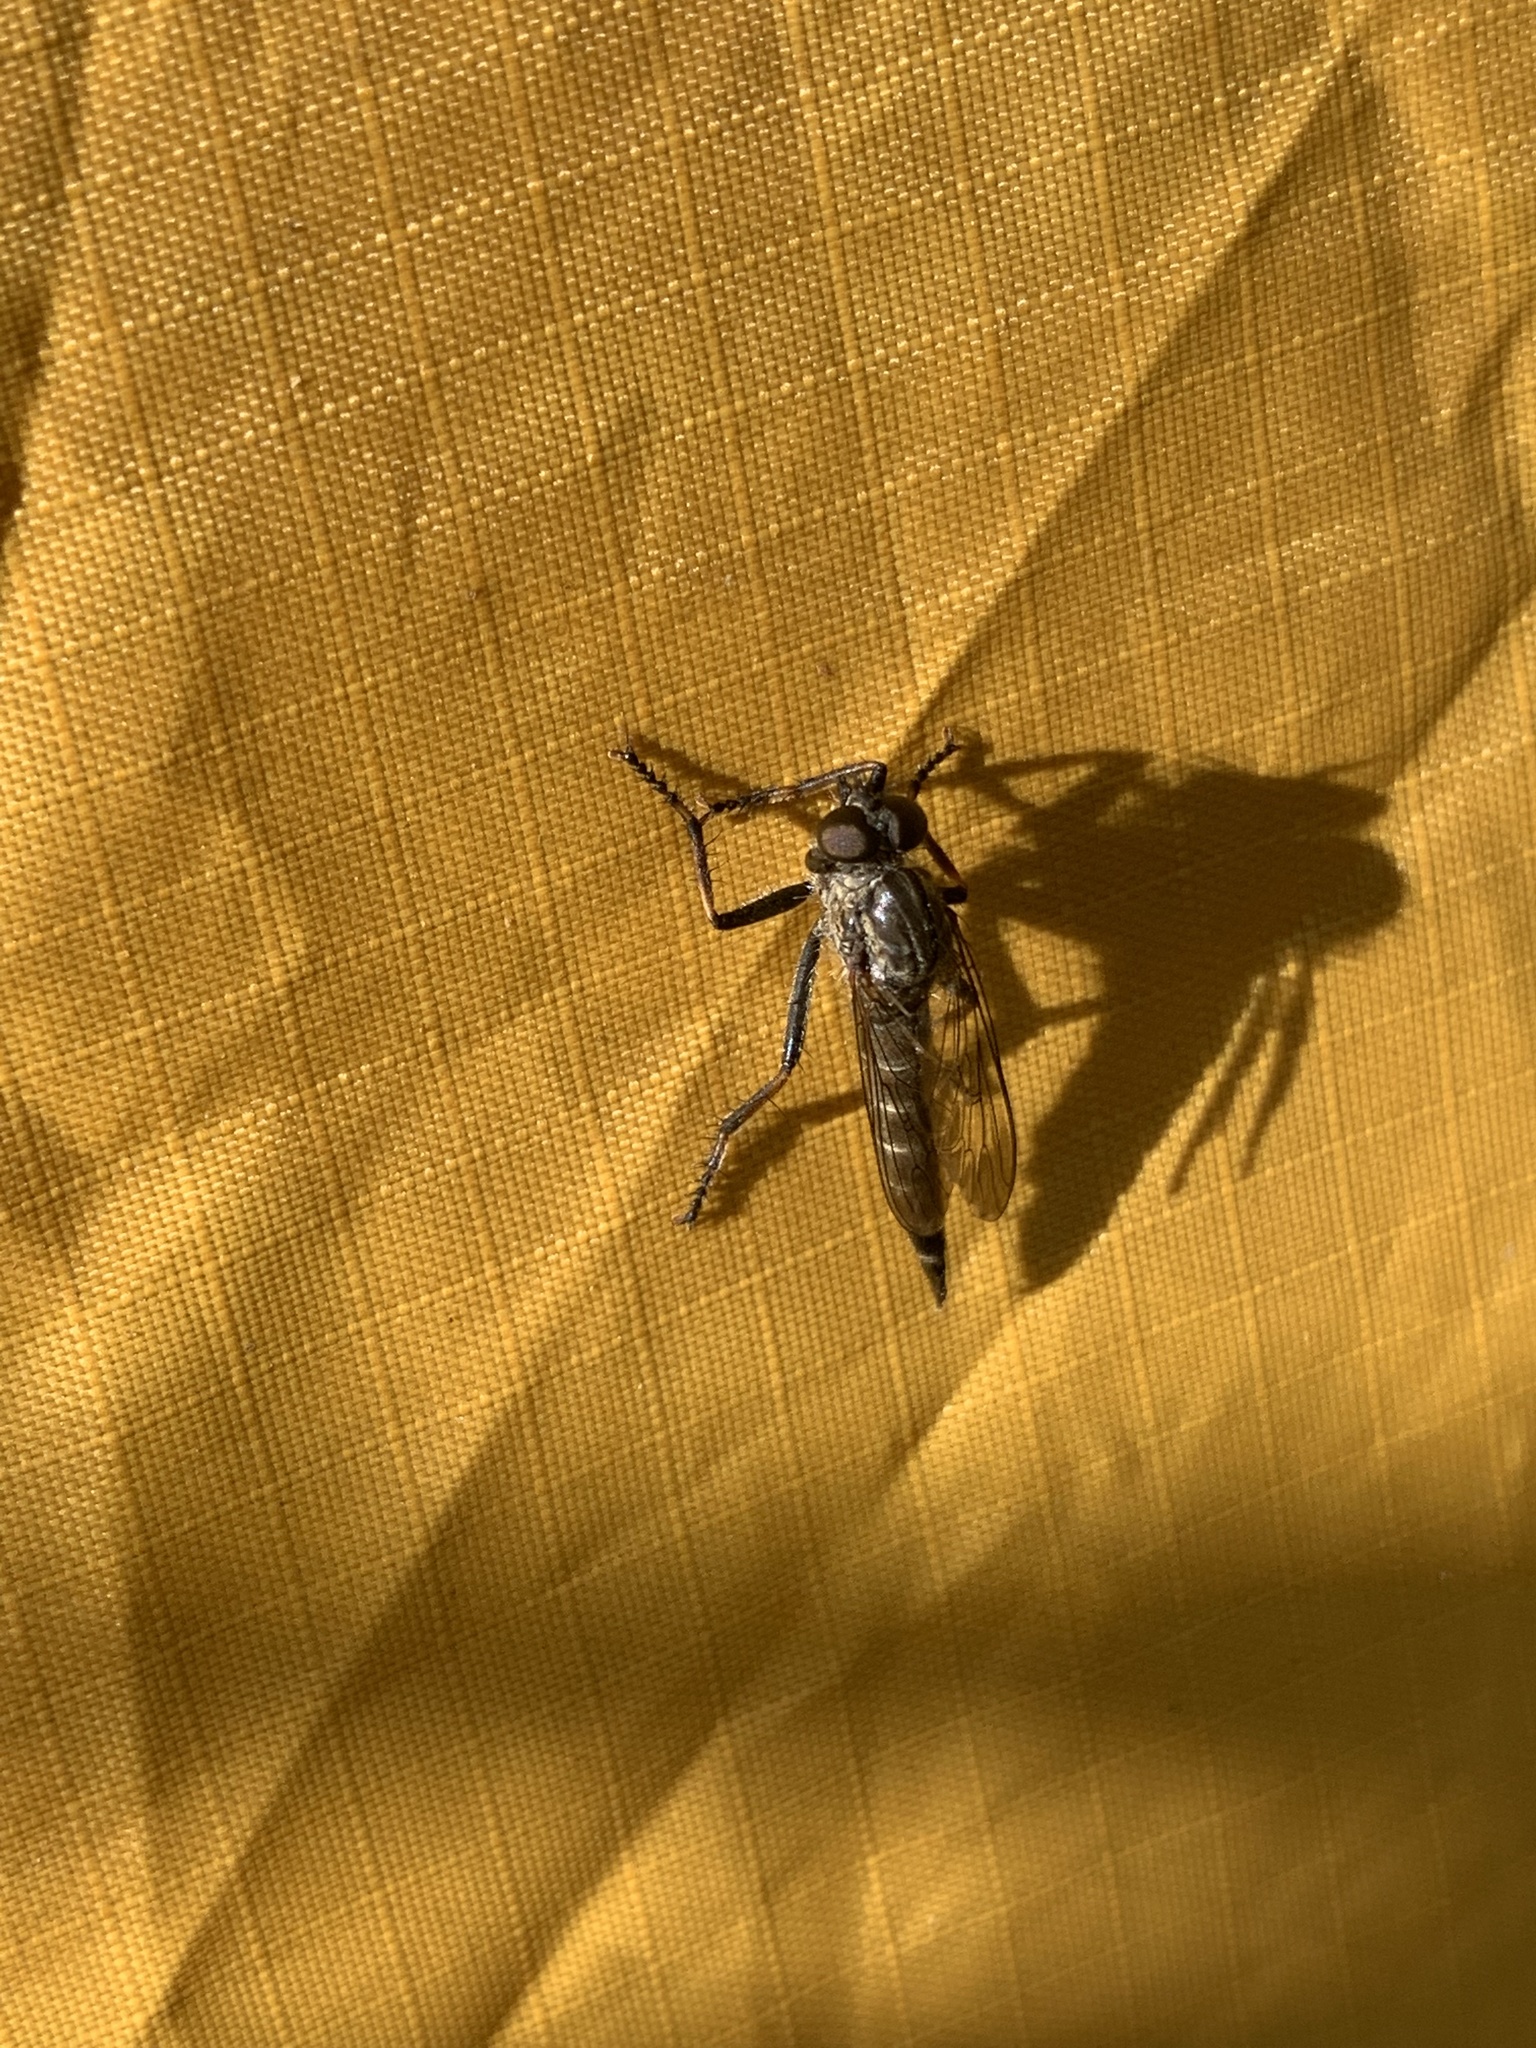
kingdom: Animalia
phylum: Arthropoda
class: Insecta
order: Diptera
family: Asilidae
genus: Machimus
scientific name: Machimus sadyates
